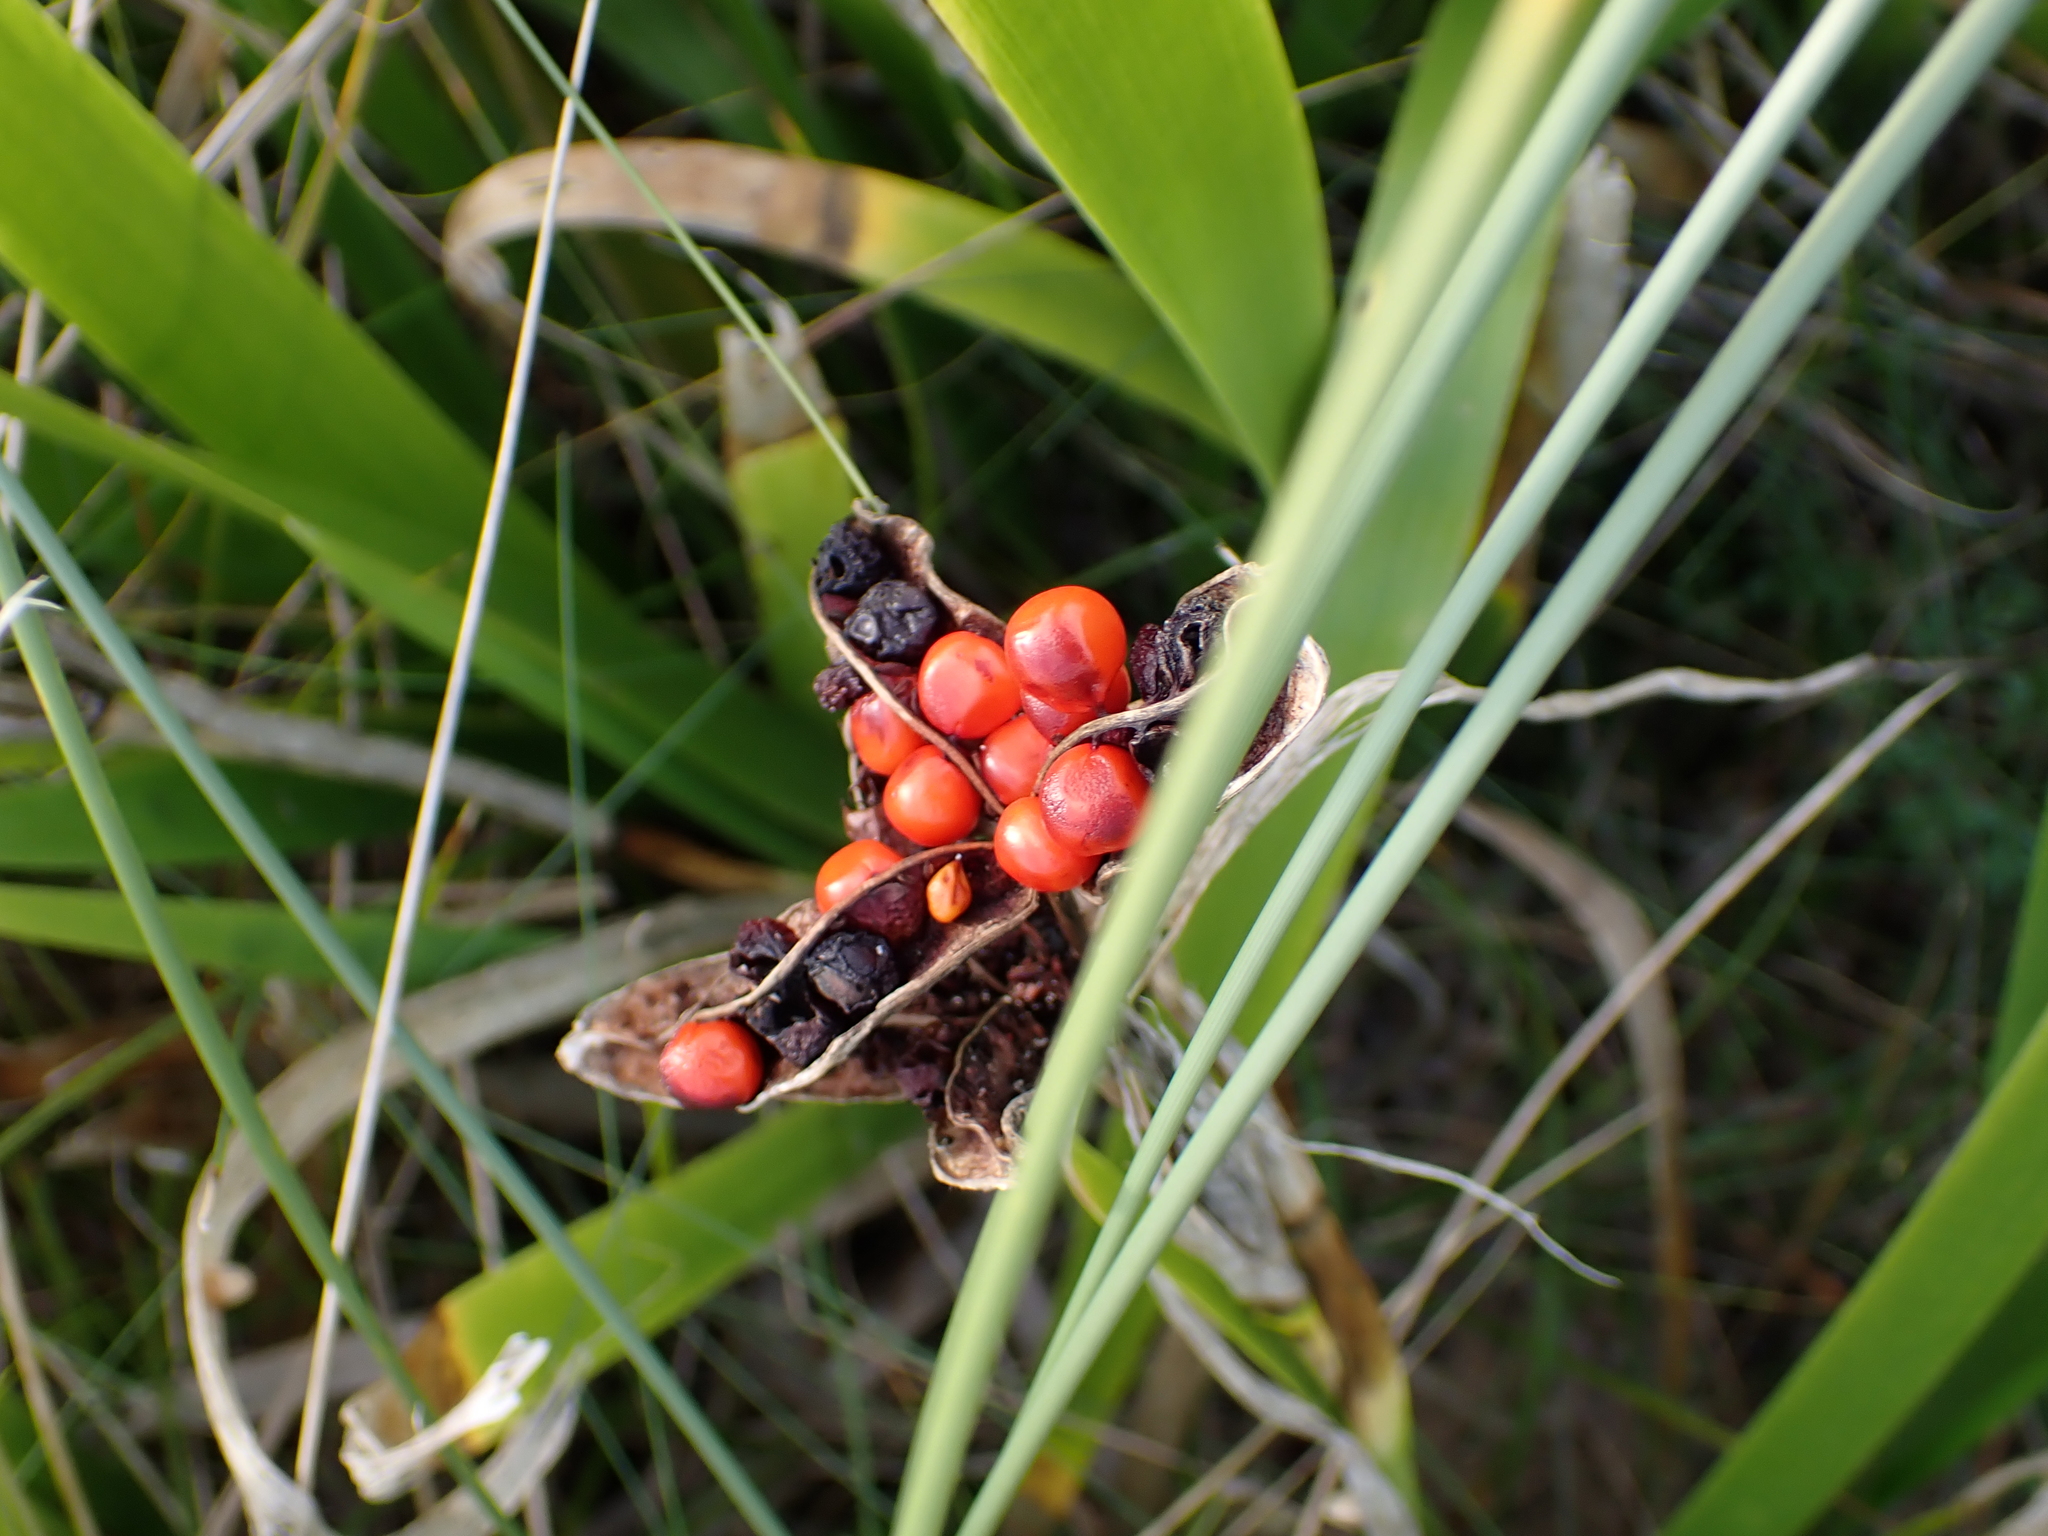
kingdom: Plantae
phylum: Tracheophyta
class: Liliopsida
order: Asparagales
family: Iridaceae
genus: Iris
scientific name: Iris foetidissima
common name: Stinking iris
